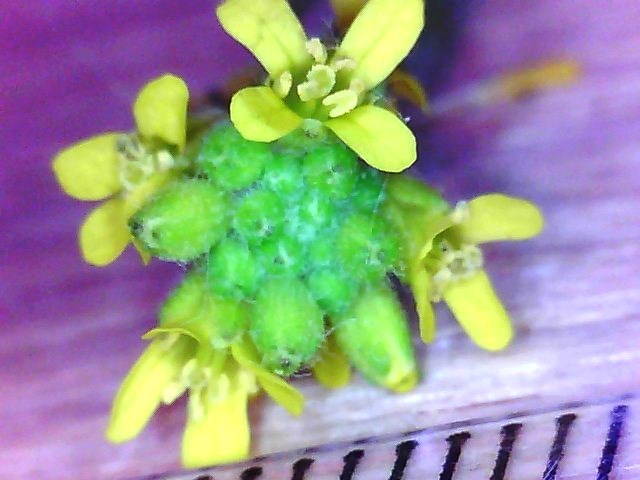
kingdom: Plantae
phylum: Tracheophyta
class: Magnoliopsida
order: Brassicales
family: Brassicaceae
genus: Sisymbrium
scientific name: Sisymbrium officinale
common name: Hedge mustard
